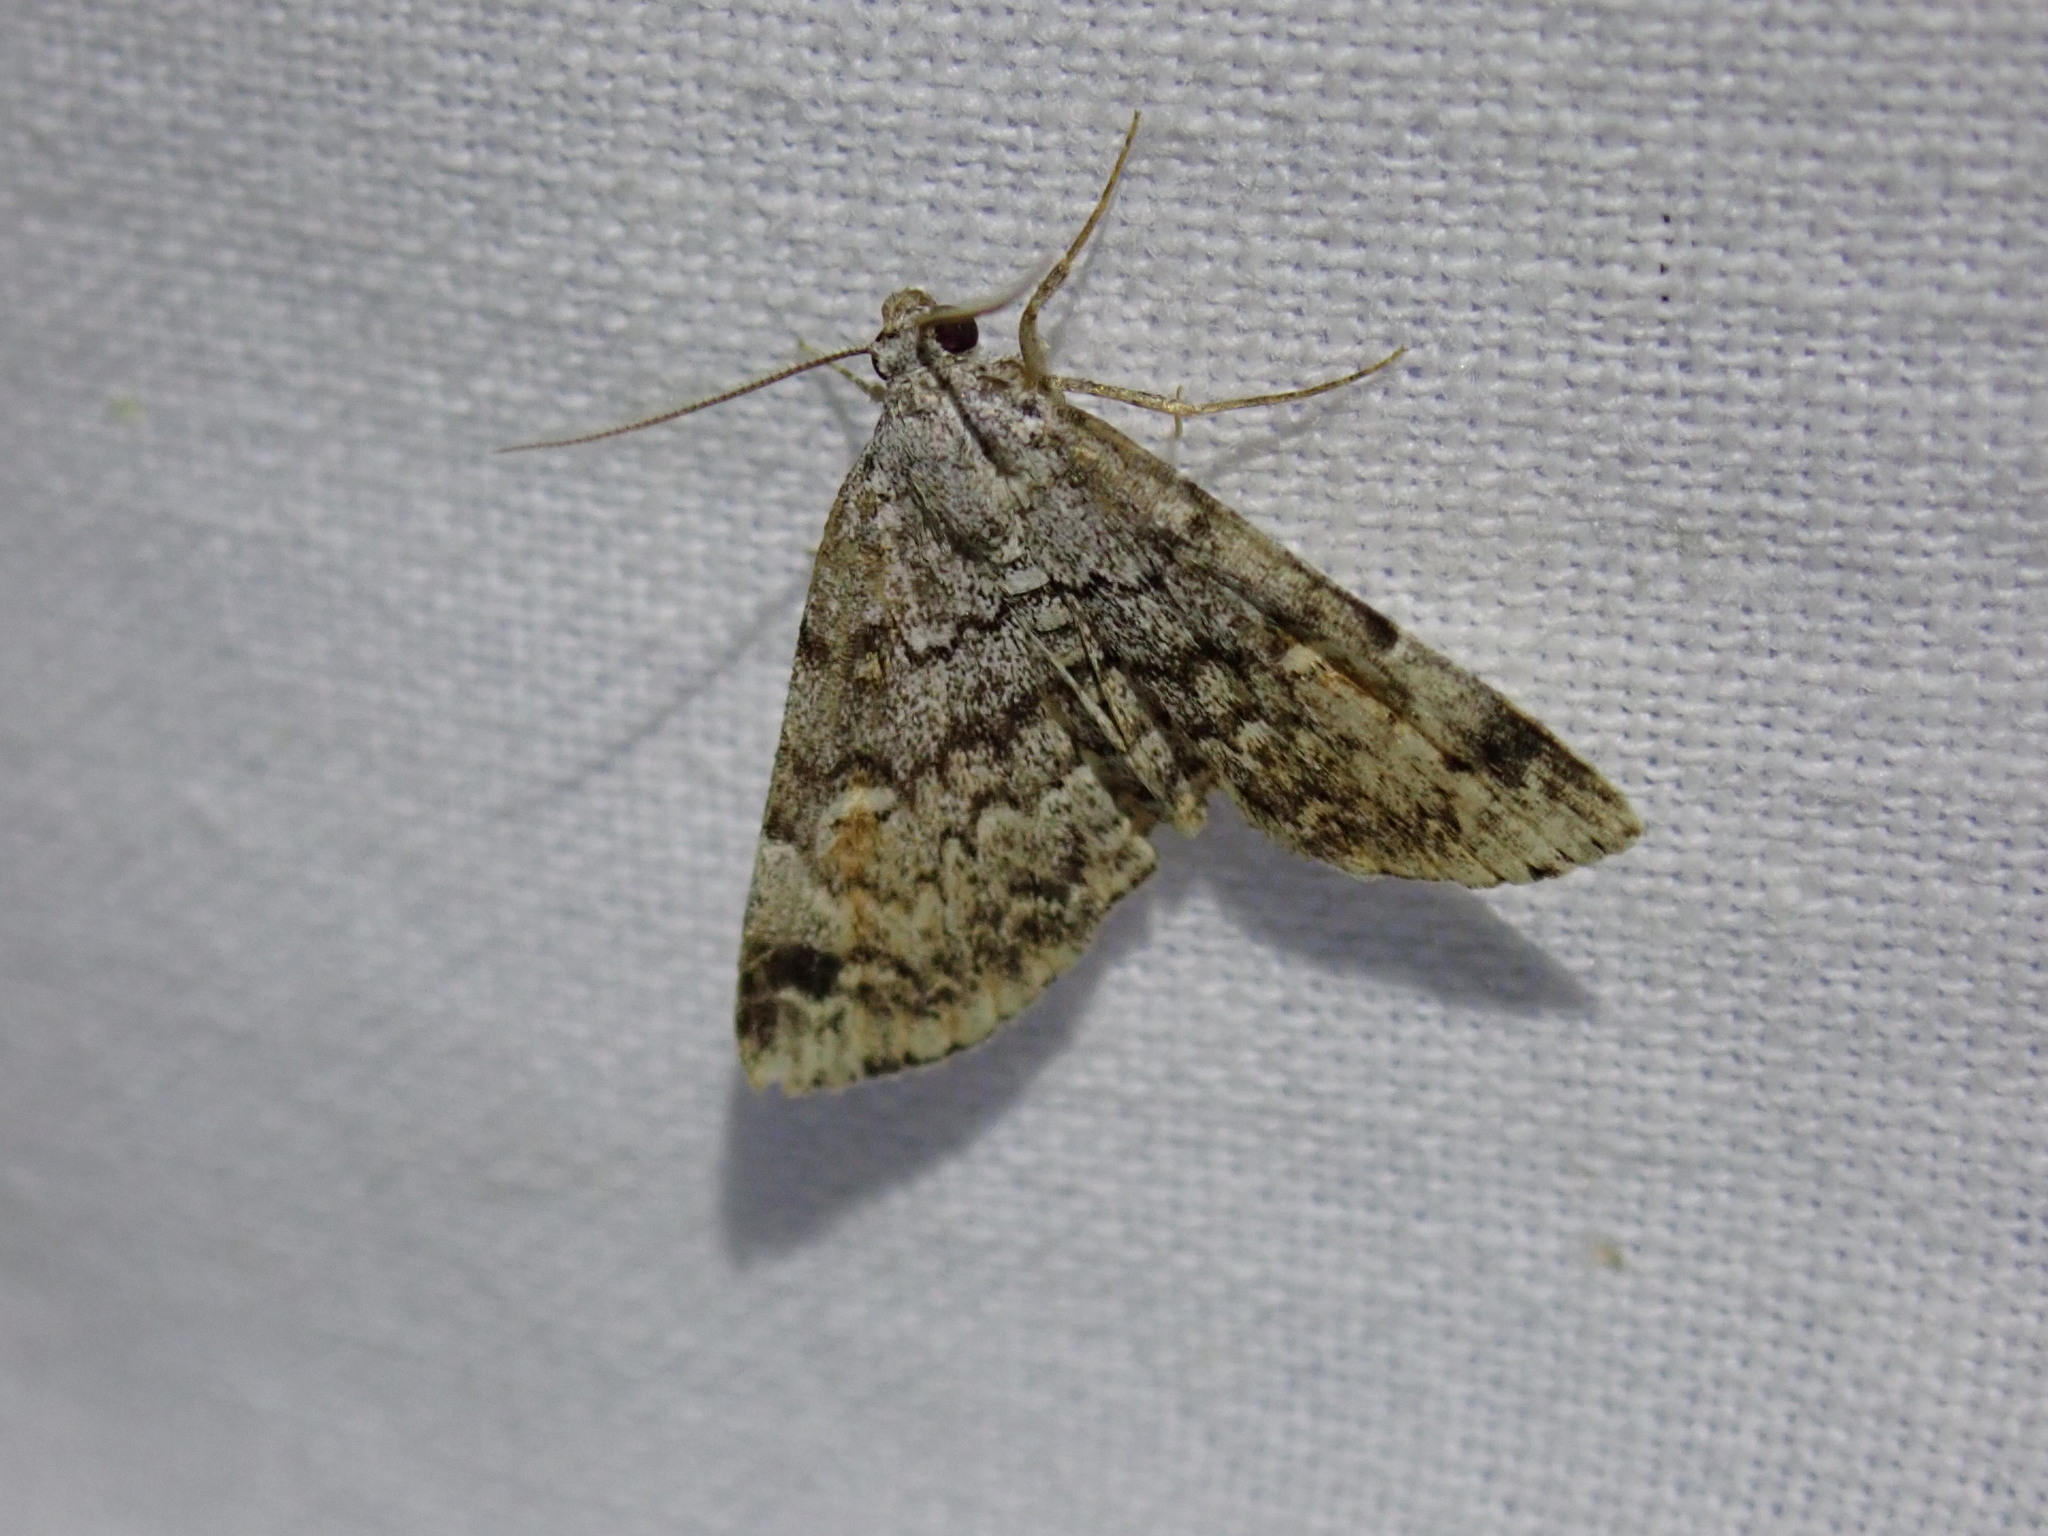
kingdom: Animalia
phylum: Arthropoda
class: Insecta
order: Lepidoptera
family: Erebidae
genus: Idia
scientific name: Idia americalis
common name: American idia moth
